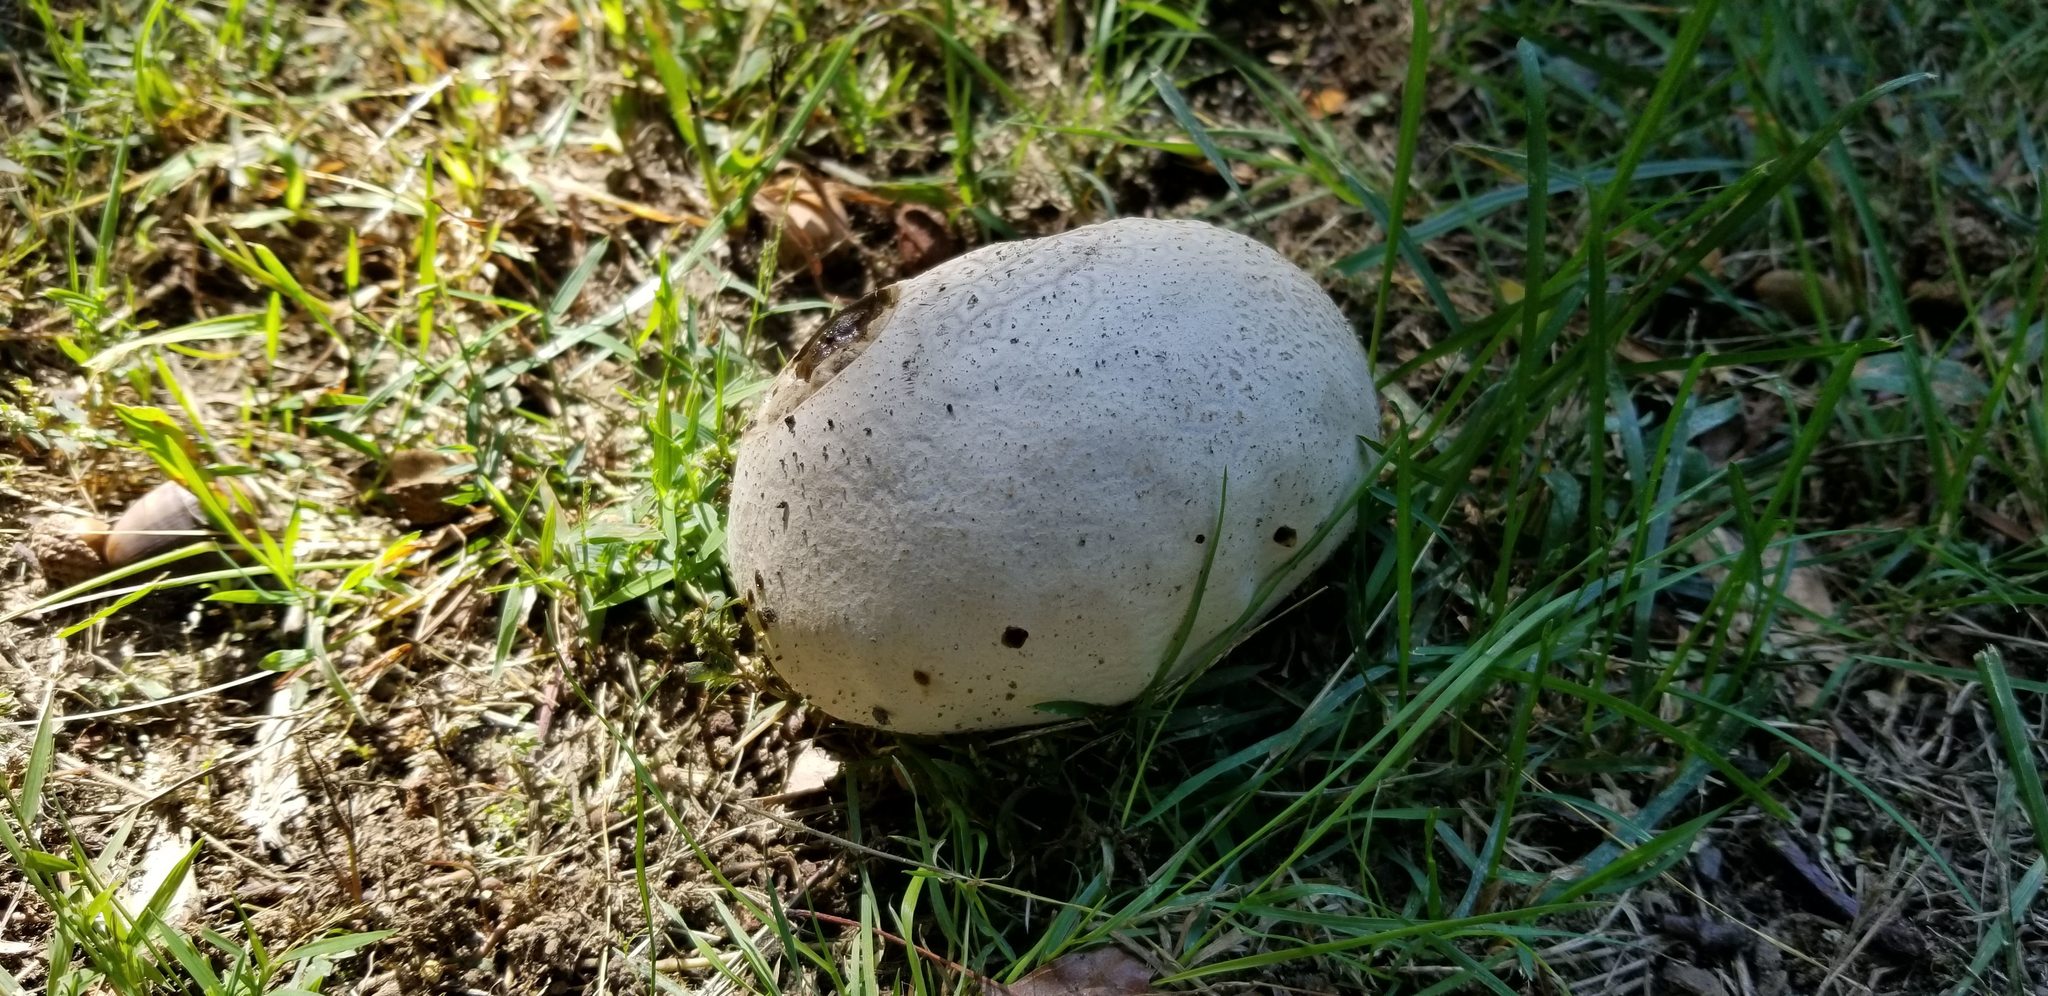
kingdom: Fungi
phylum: Basidiomycota
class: Agaricomycetes
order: Agaricales
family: Lycoperdaceae
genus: Calvatia
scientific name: Calvatia cyathiformis
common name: Purple-spored puffball
